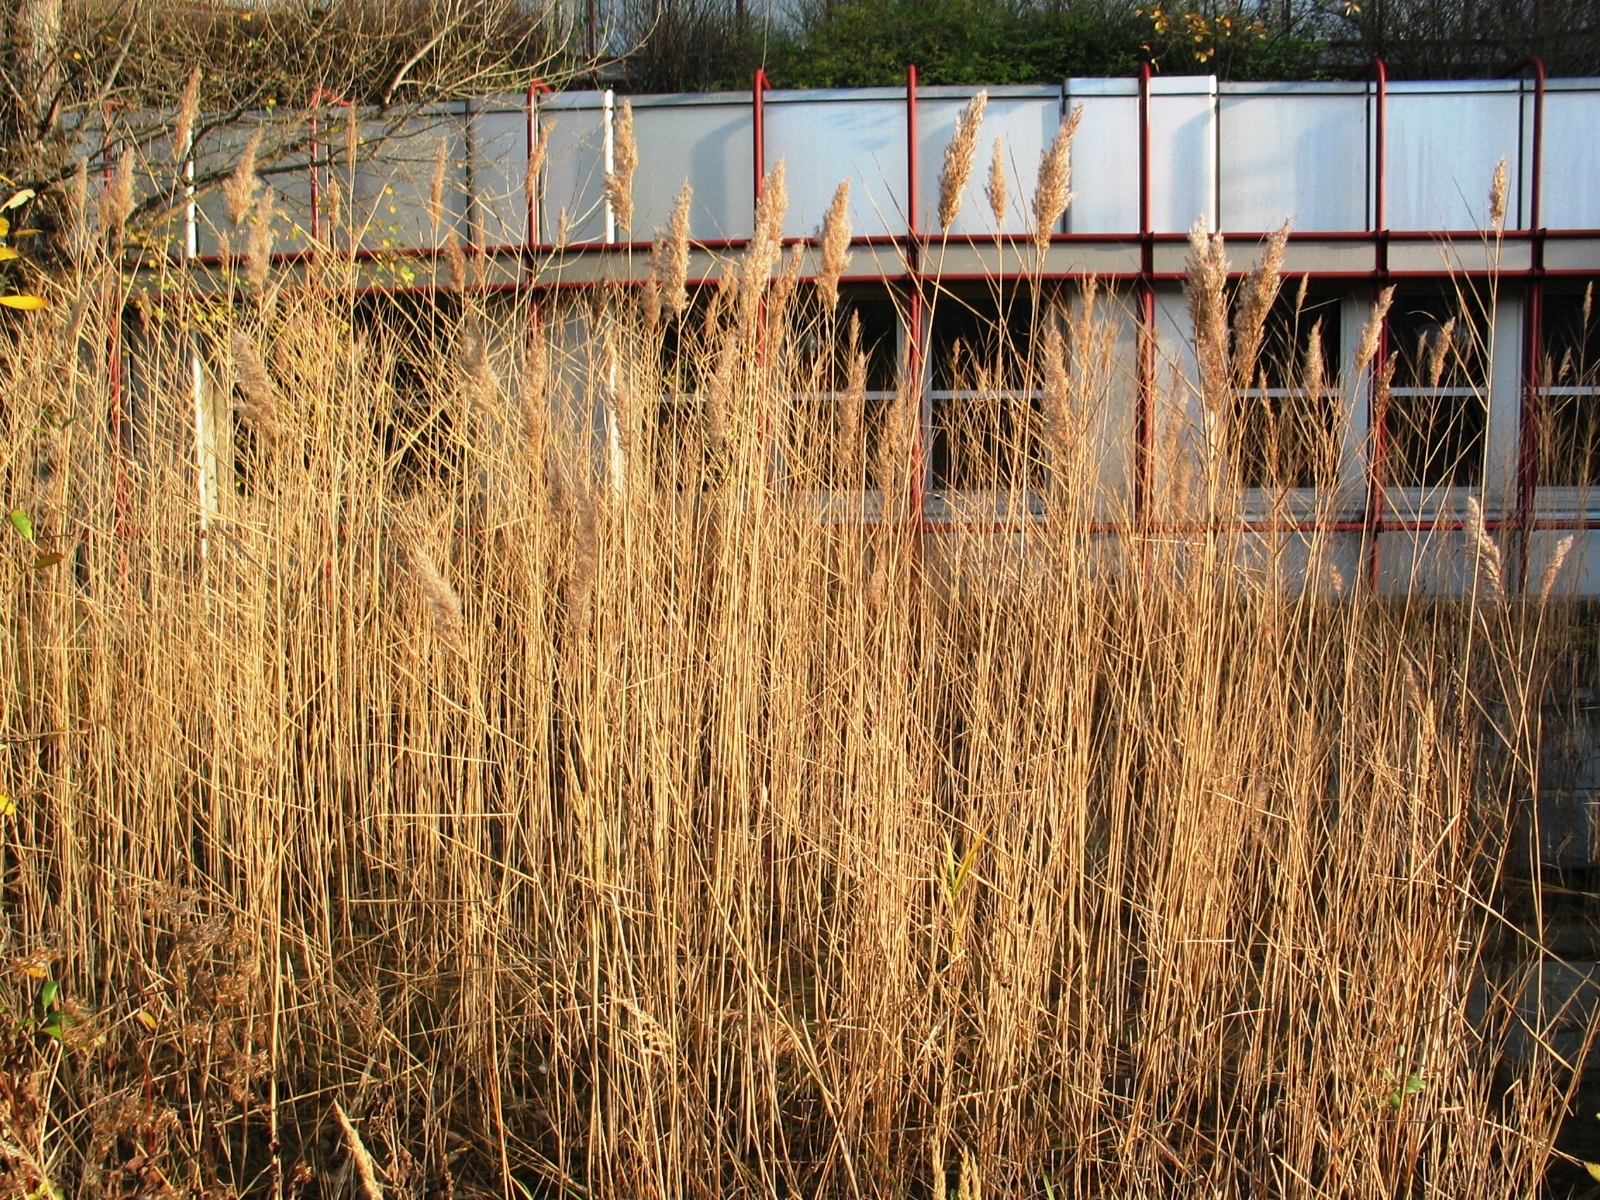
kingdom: Plantae
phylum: Tracheophyta
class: Liliopsida
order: Poales
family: Poaceae
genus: Phragmites
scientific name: Phragmites australis
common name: Common reed
